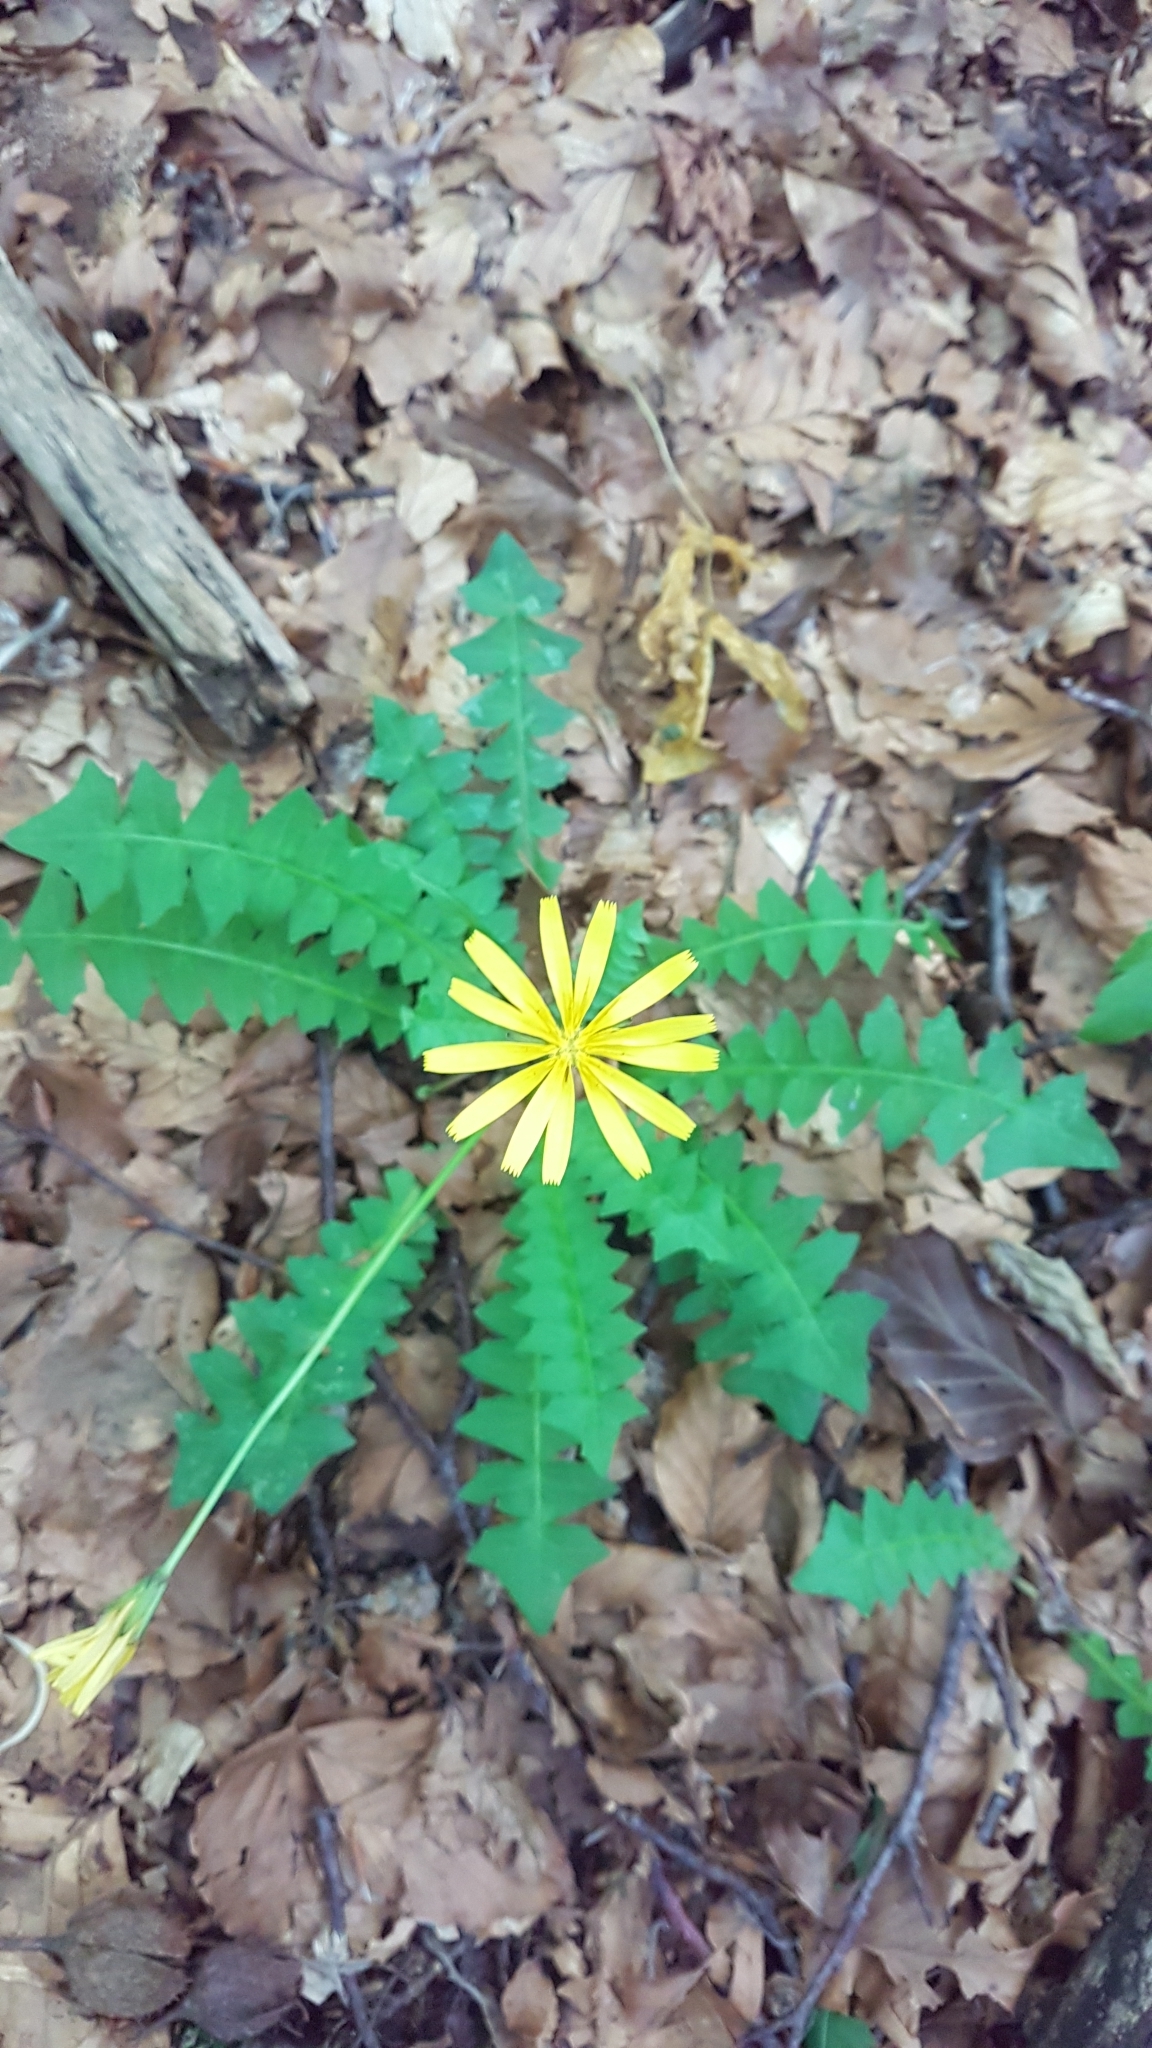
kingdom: Plantae
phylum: Tracheophyta
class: Magnoliopsida
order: Asterales
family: Asteraceae
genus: Aposeris
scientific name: Aposeris foetida
